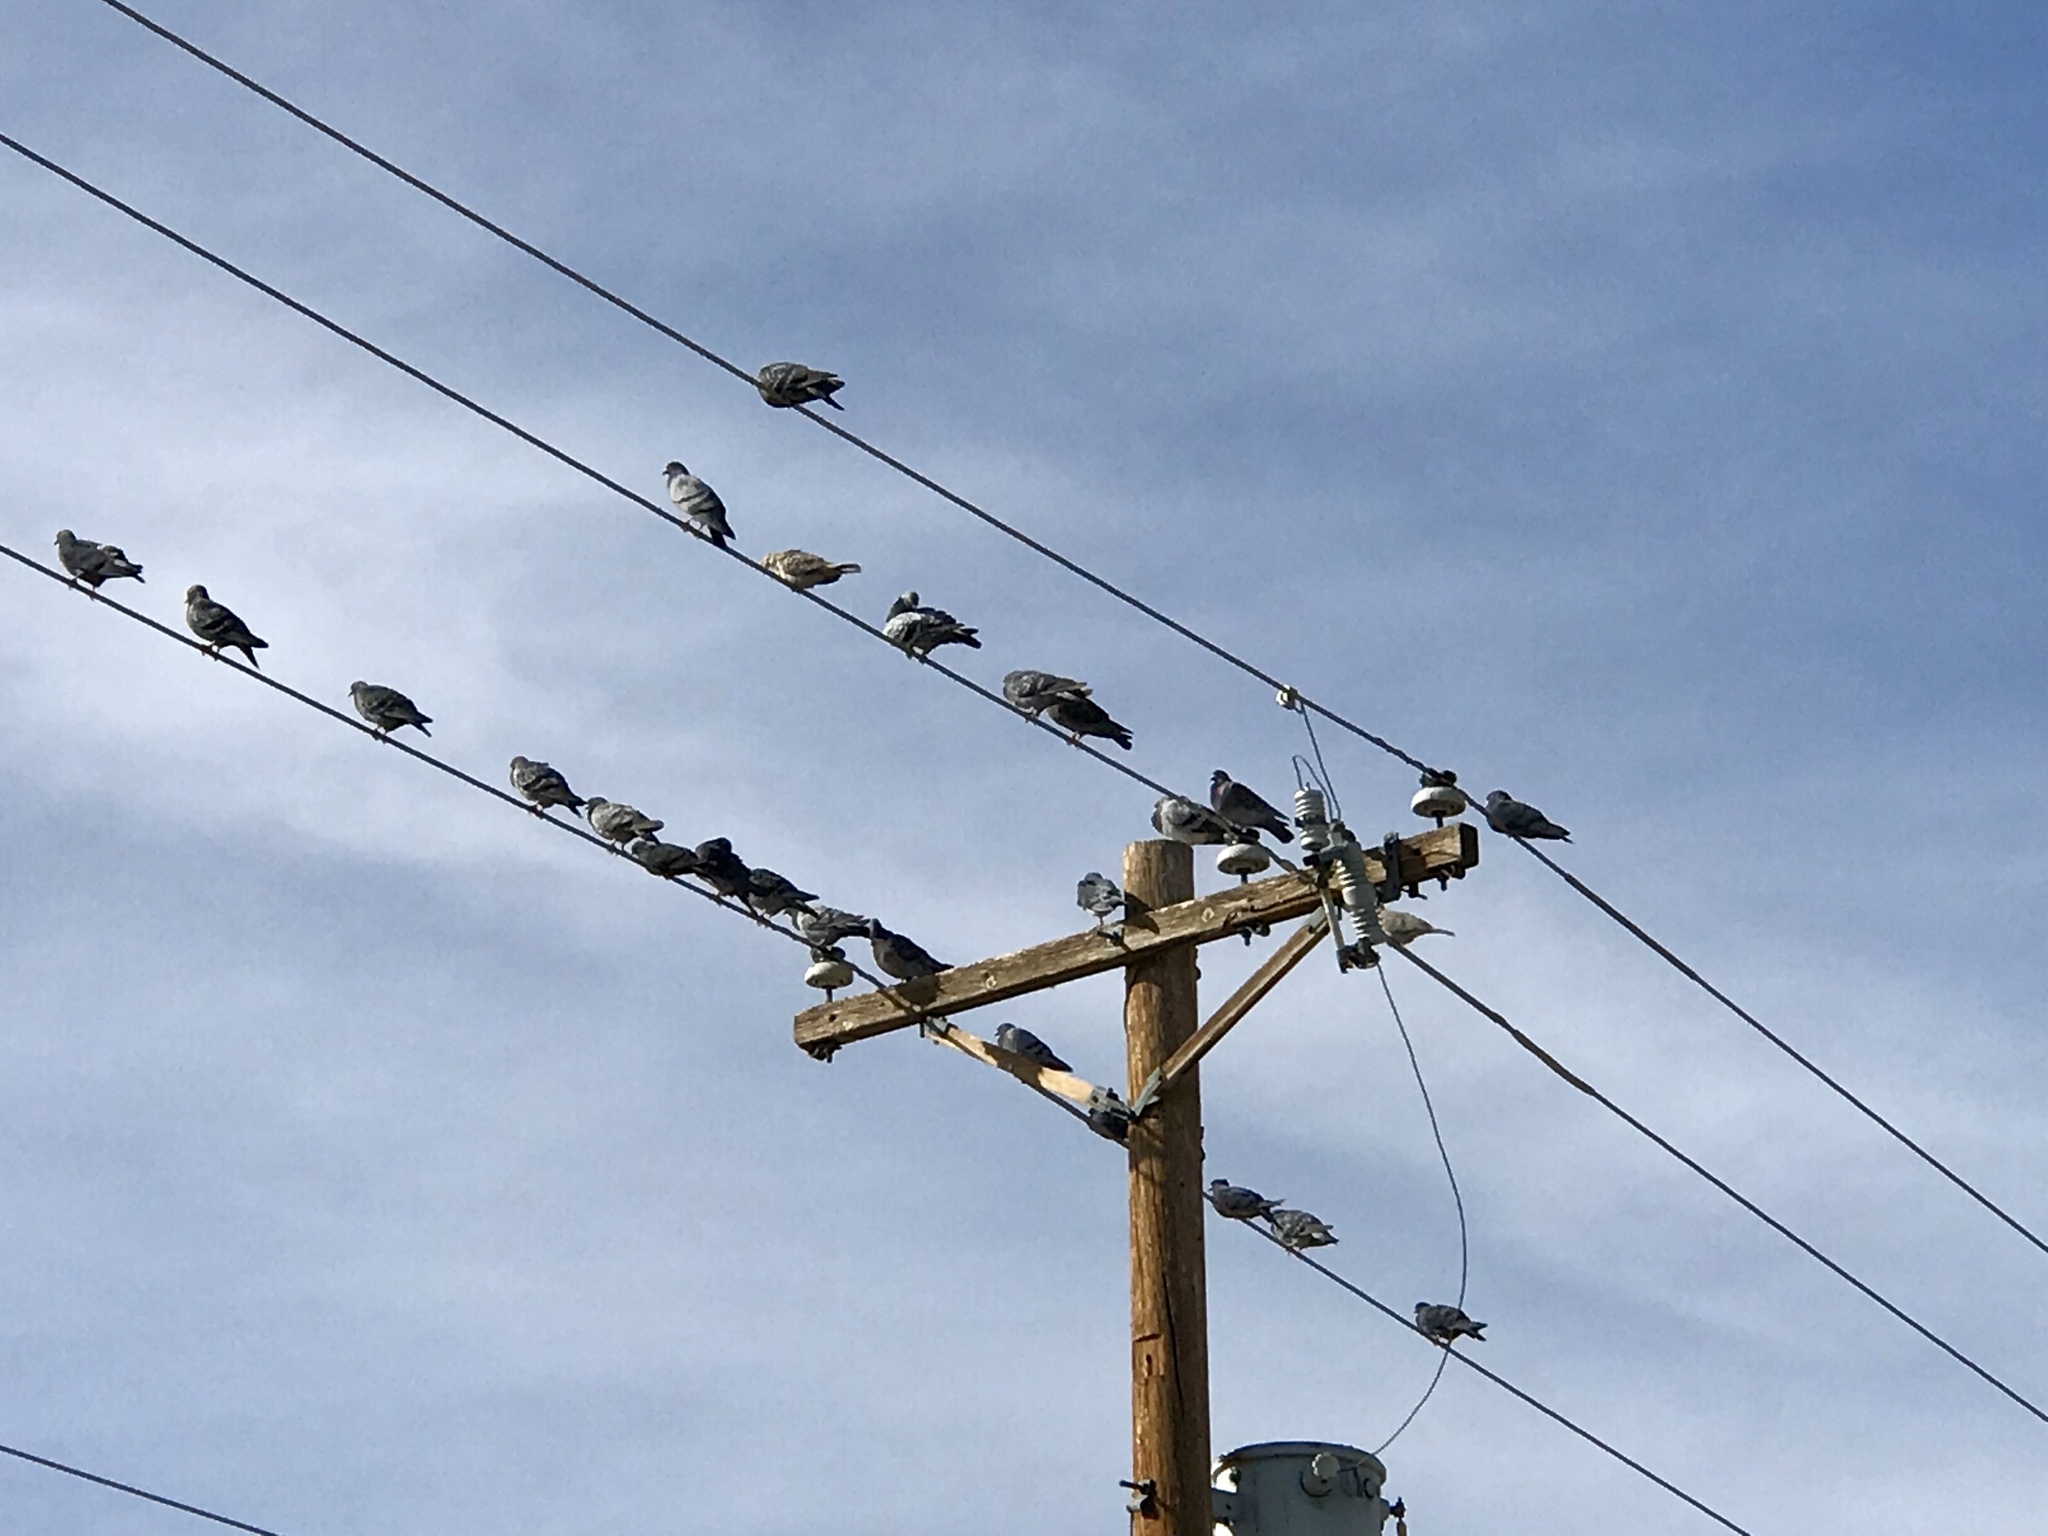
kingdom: Animalia
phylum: Chordata
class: Aves
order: Columbiformes
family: Columbidae
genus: Columba
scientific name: Columba livia
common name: Rock pigeon
